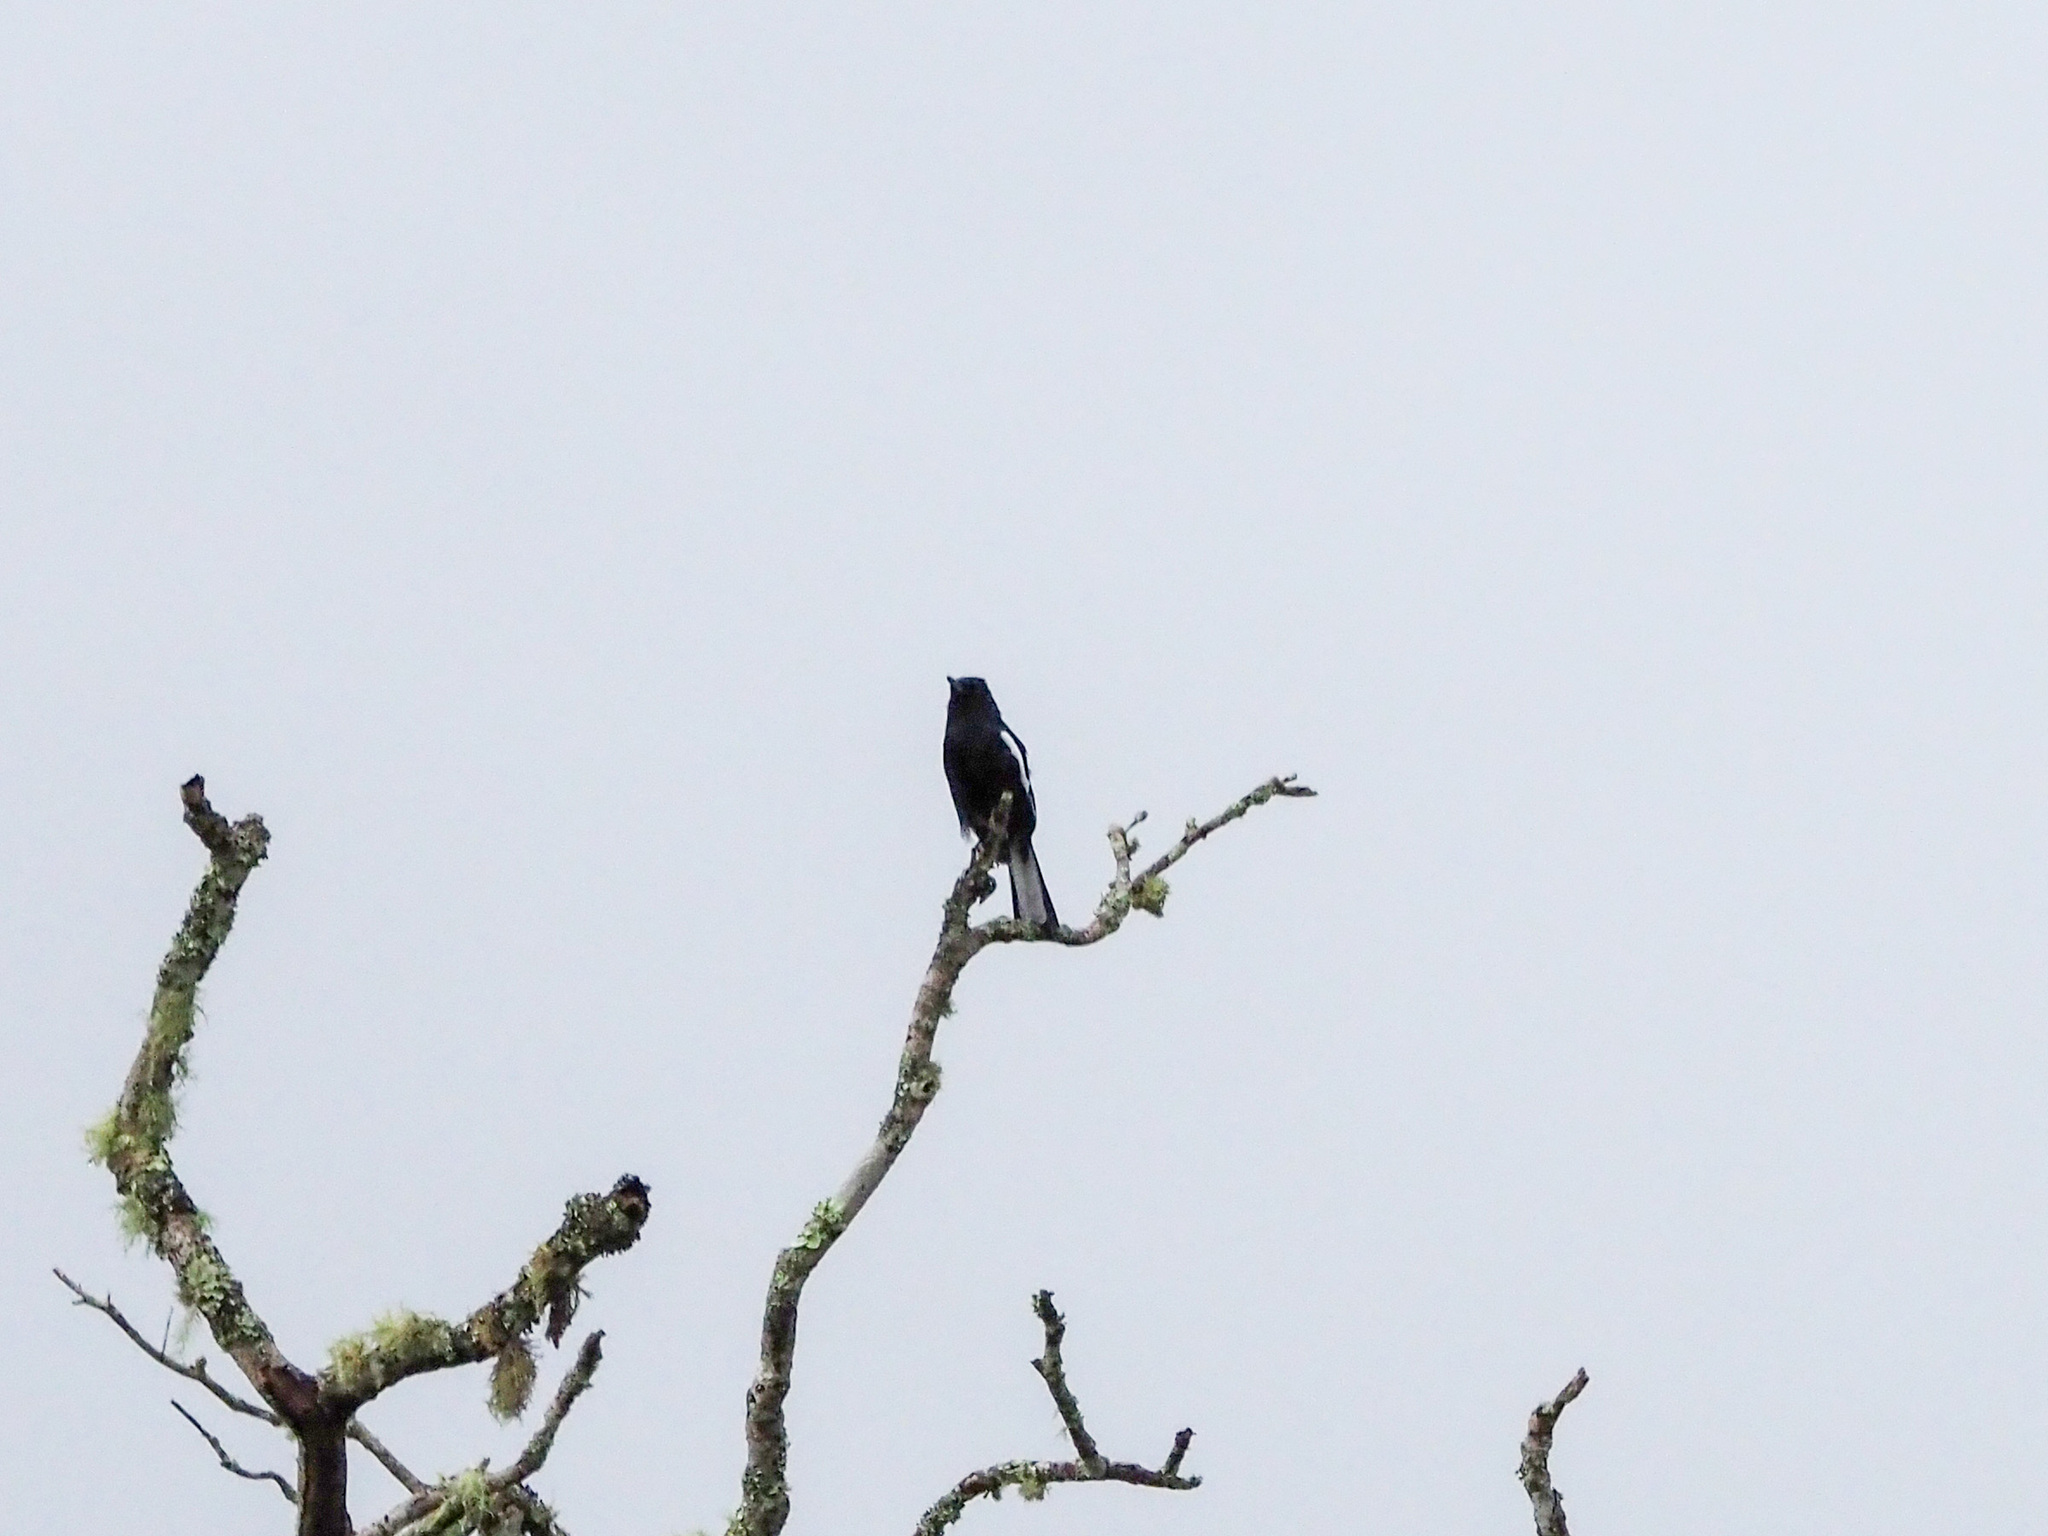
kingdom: Animalia
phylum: Chordata
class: Aves
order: Passeriformes
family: Muscicapidae
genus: Copsychus
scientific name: Copsychus saularis
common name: Oriental magpie-robin
